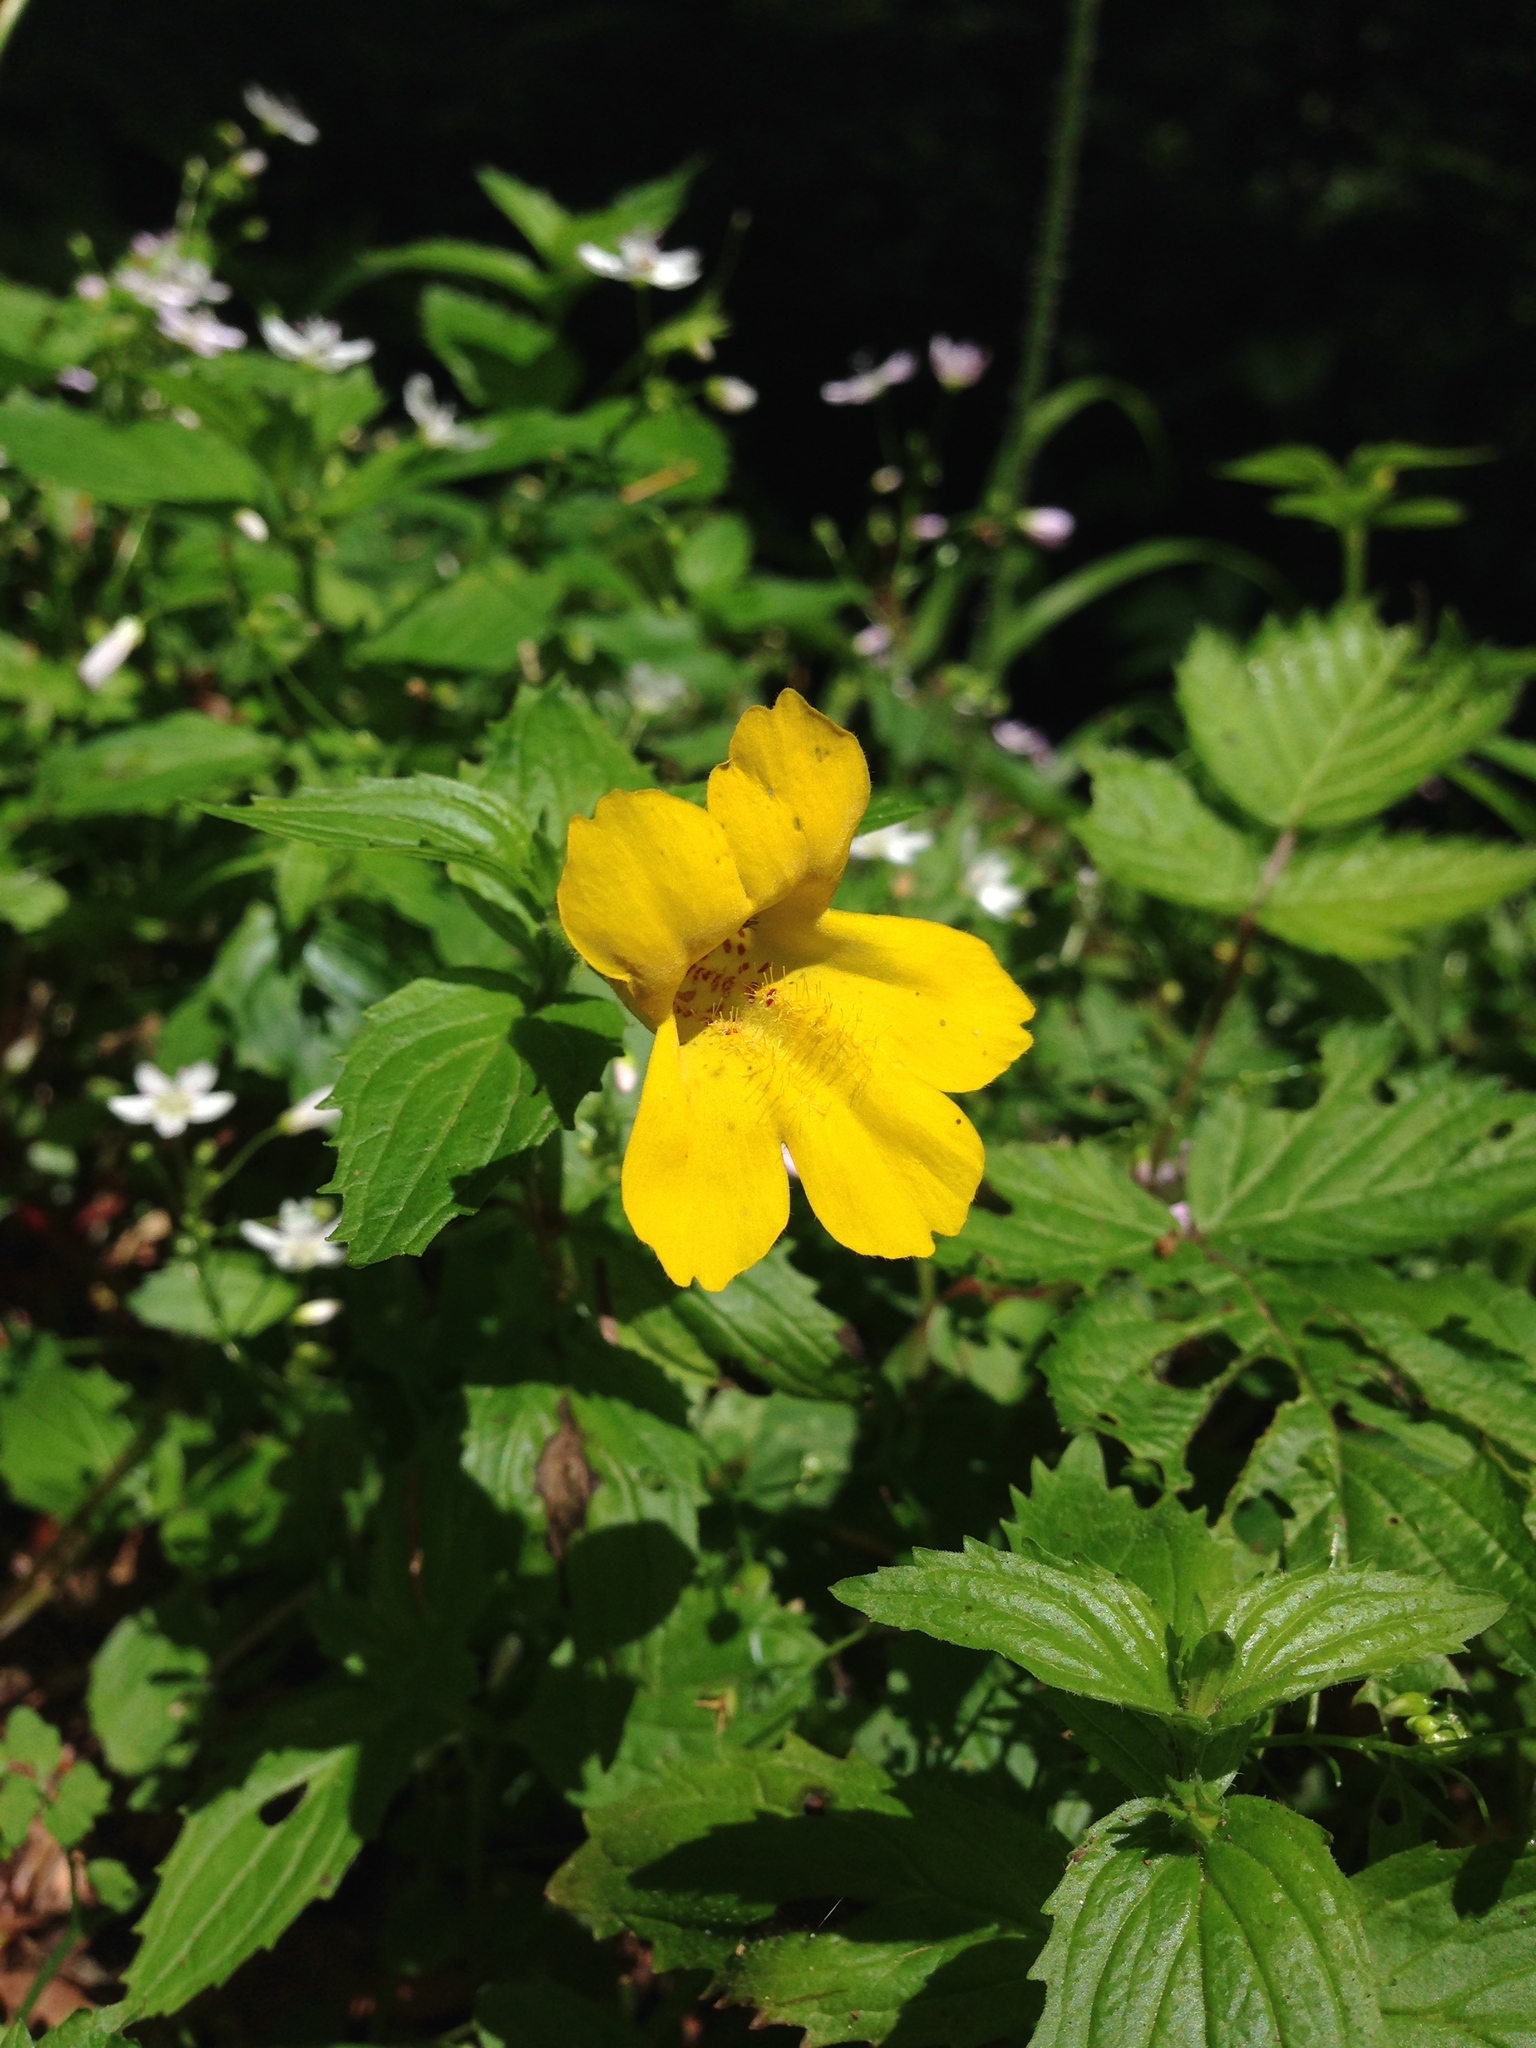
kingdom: Plantae
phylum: Tracheophyta
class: Magnoliopsida
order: Lamiales
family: Phrymaceae
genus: Erythranthe
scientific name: Erythranthe dentata
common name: Coastal monkeyflower
